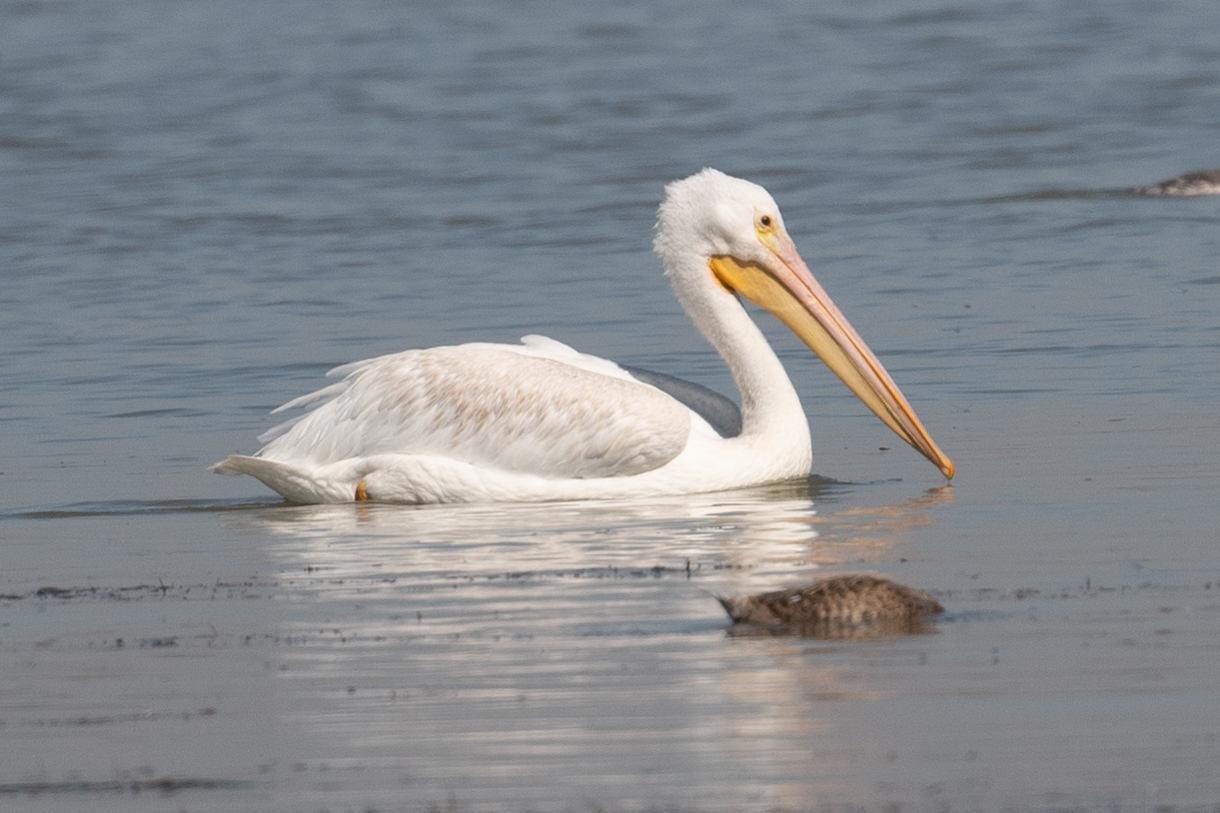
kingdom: Animalia
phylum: Chordata
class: Aves
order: Pelecaniformes
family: Pelecanidae
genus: Pelecanus
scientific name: Pelecanus erythrorhynchos
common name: American white pelican
